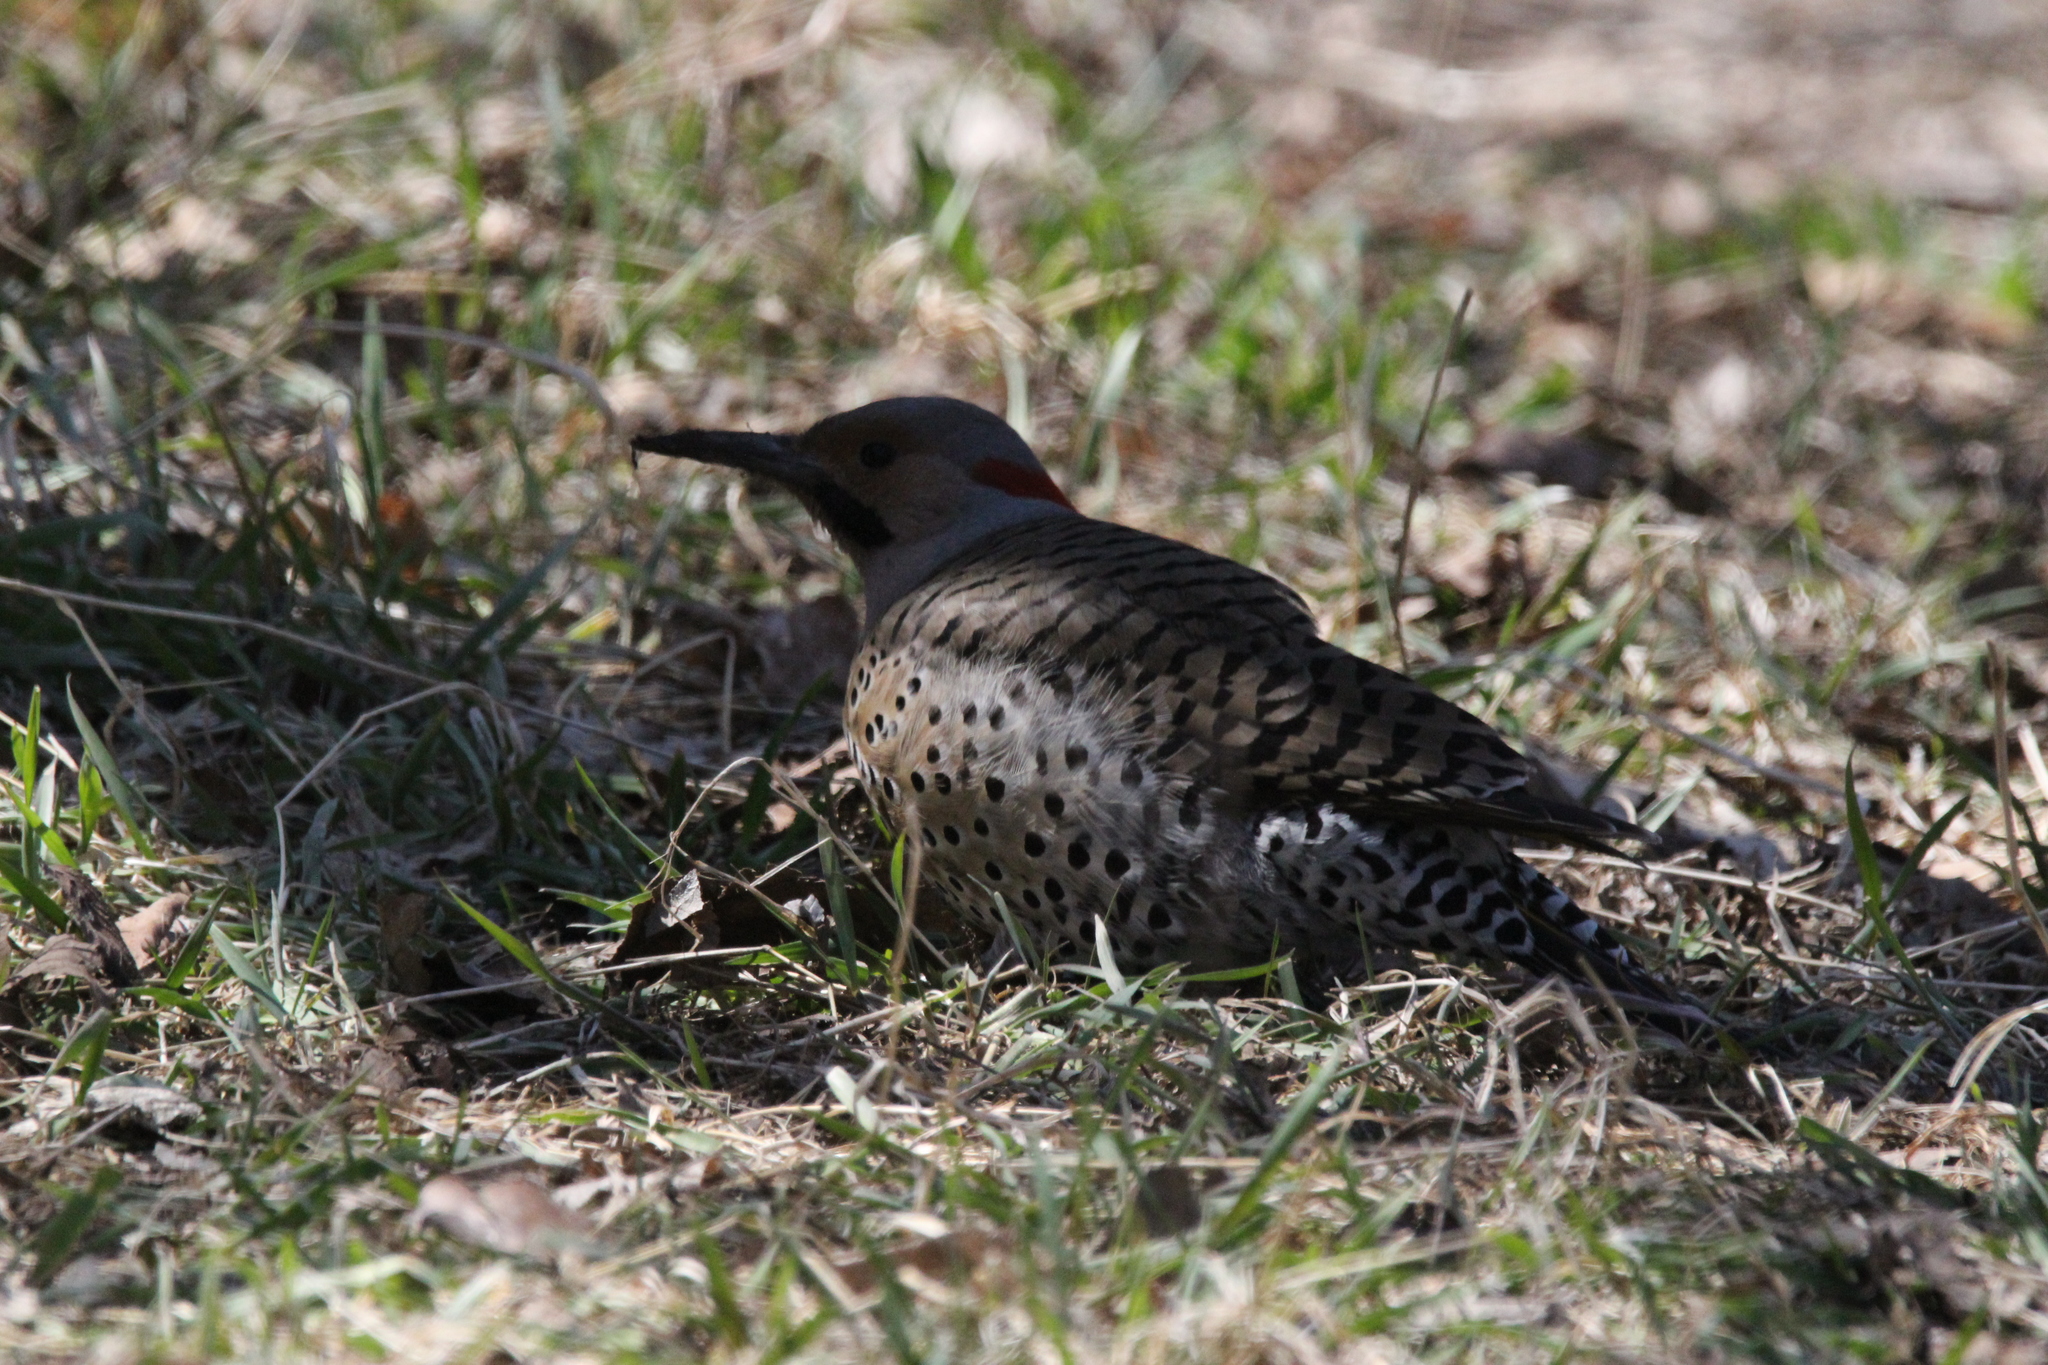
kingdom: Animalia
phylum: Chordata
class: Aves
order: Piciformes
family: Picidae
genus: Colaptes
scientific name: Colaptes auratus
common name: Northern flicker
